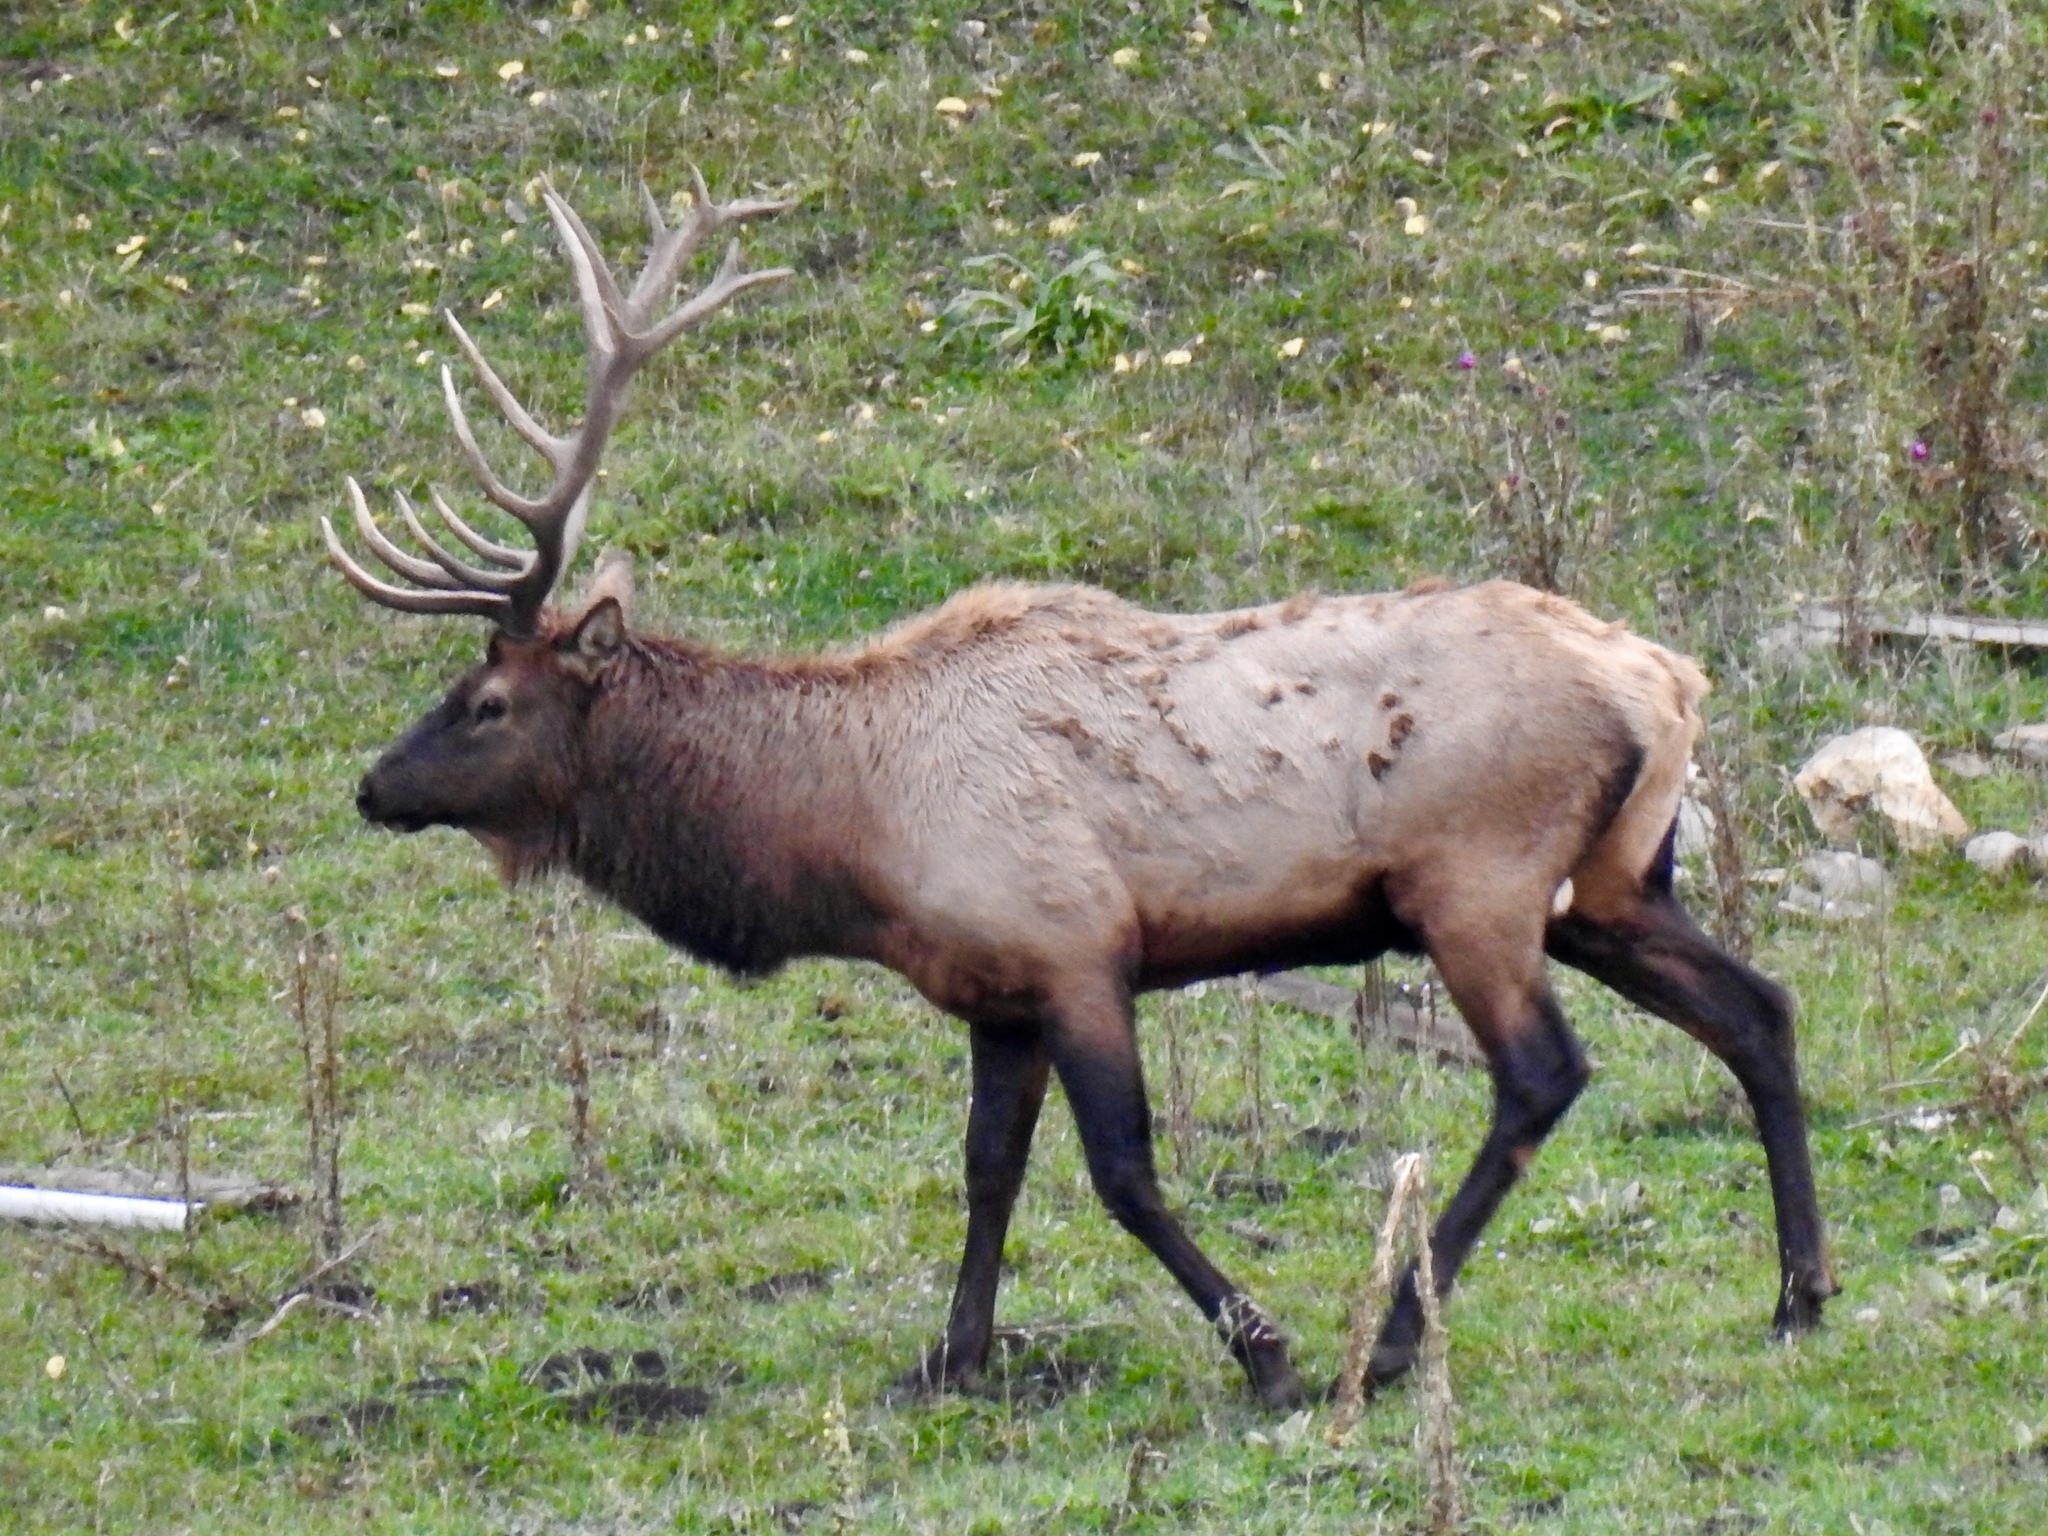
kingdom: Animalia
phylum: Chordata
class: Mammalia
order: Artiodactyla
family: Cervidae
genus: Cervus
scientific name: Cervus elaphus
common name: Red deer
